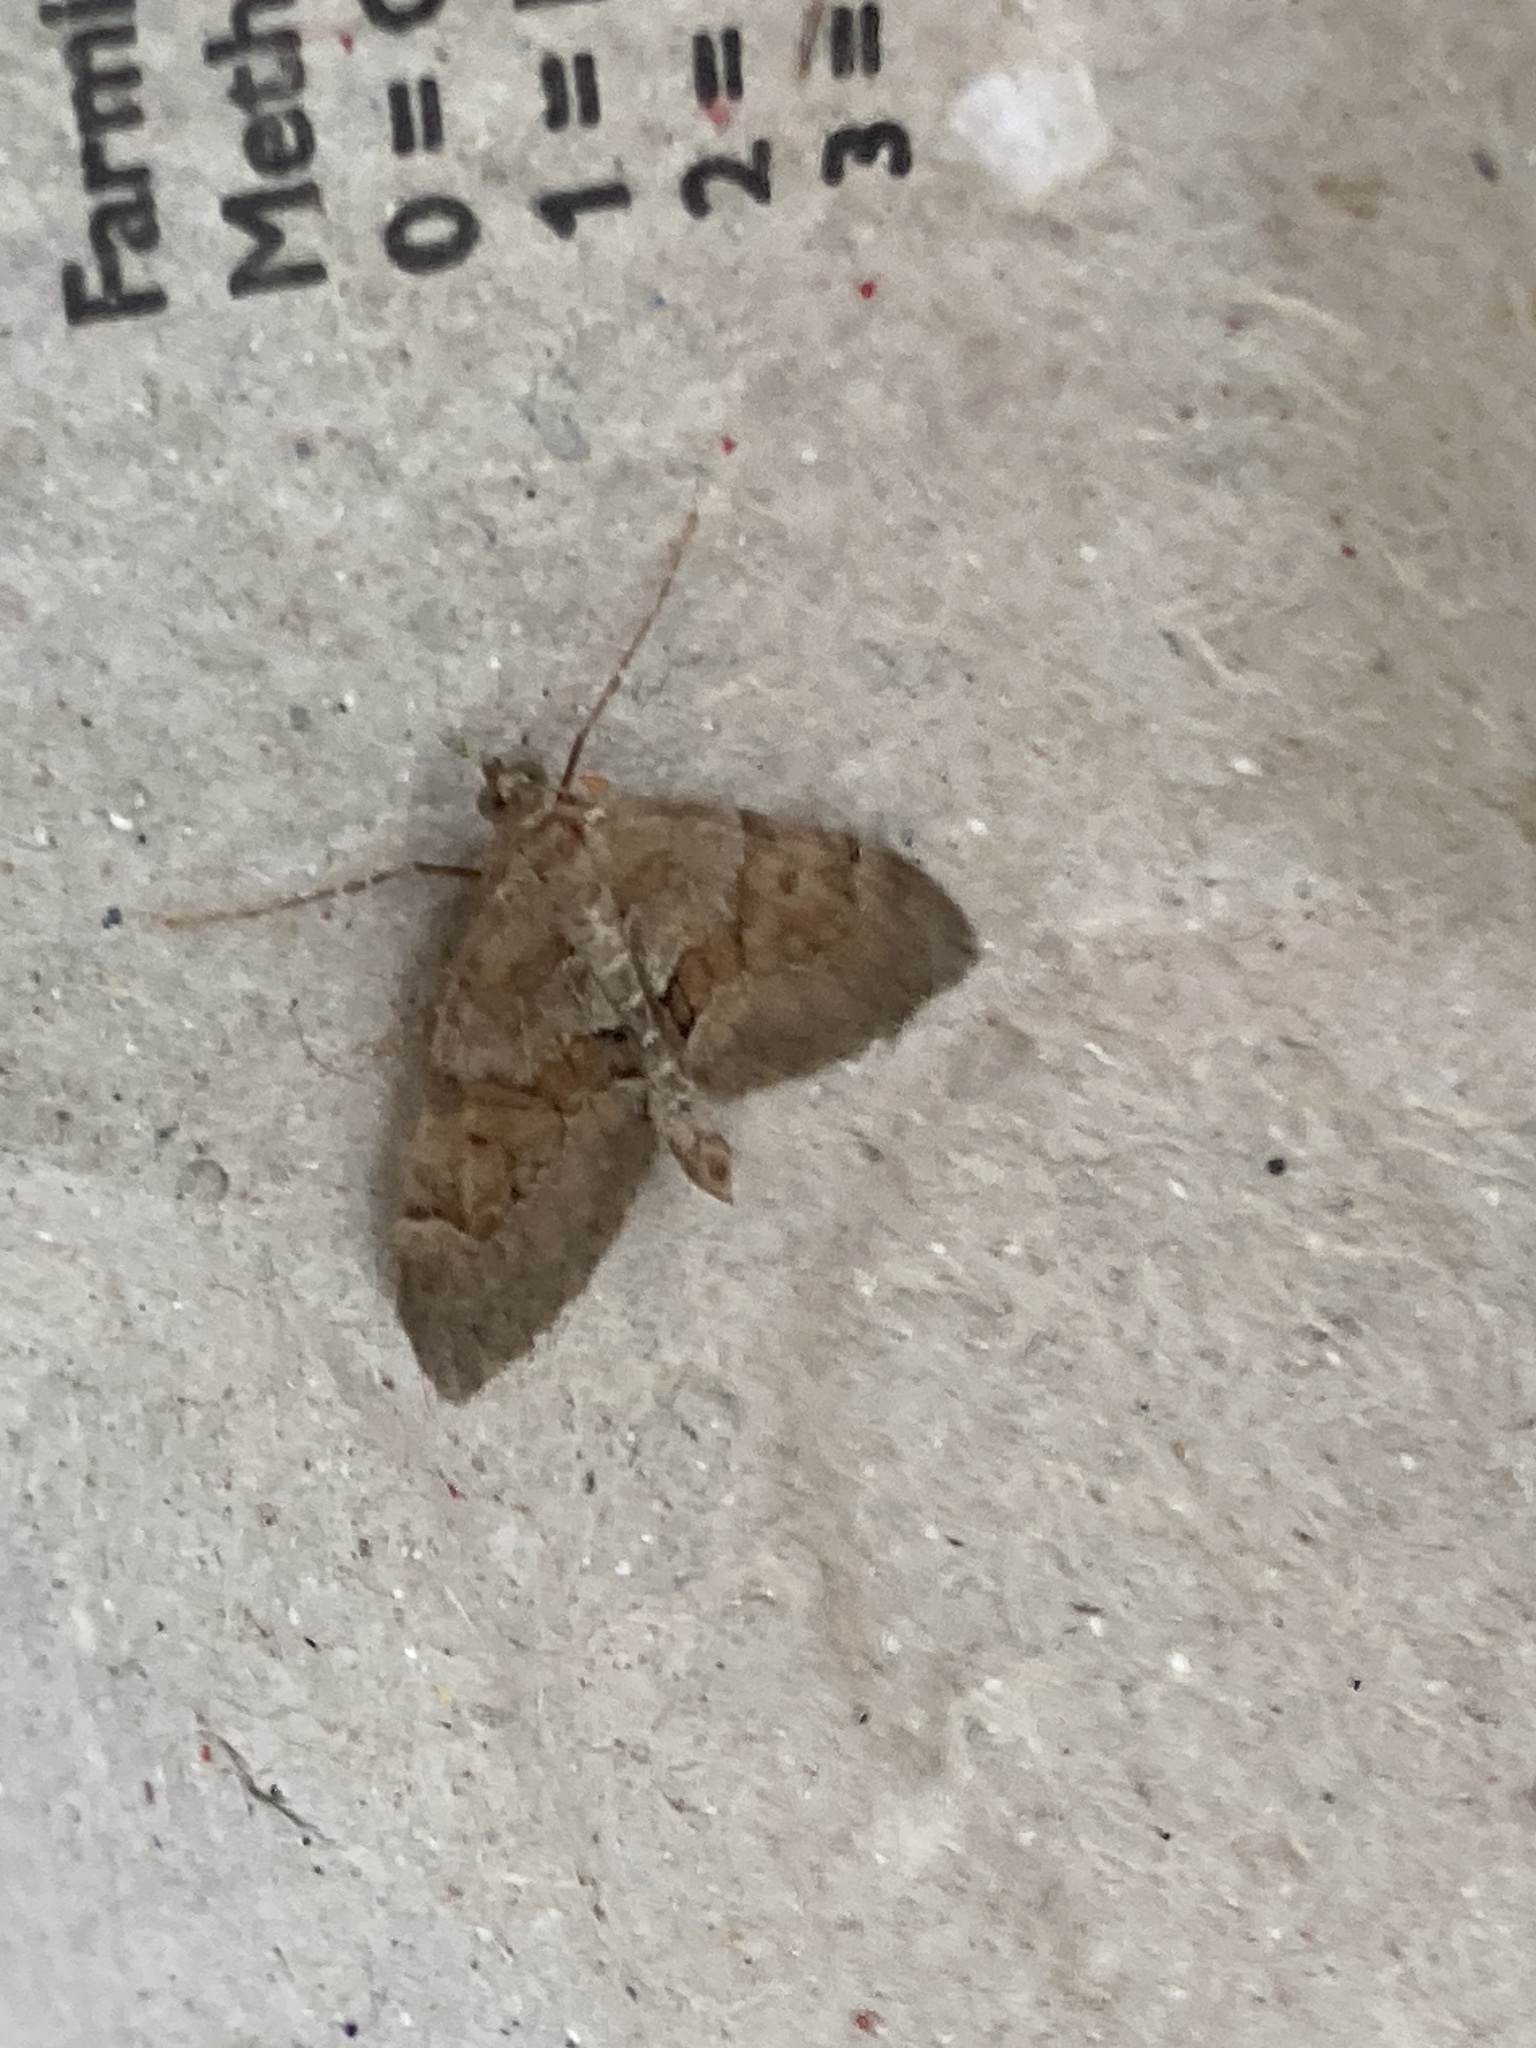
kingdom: Animalia
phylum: Arthropoda
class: Insecta
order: Lepidoptera
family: Geometridae
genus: Thera
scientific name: Thera obeliscata
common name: Grey pine carpet
